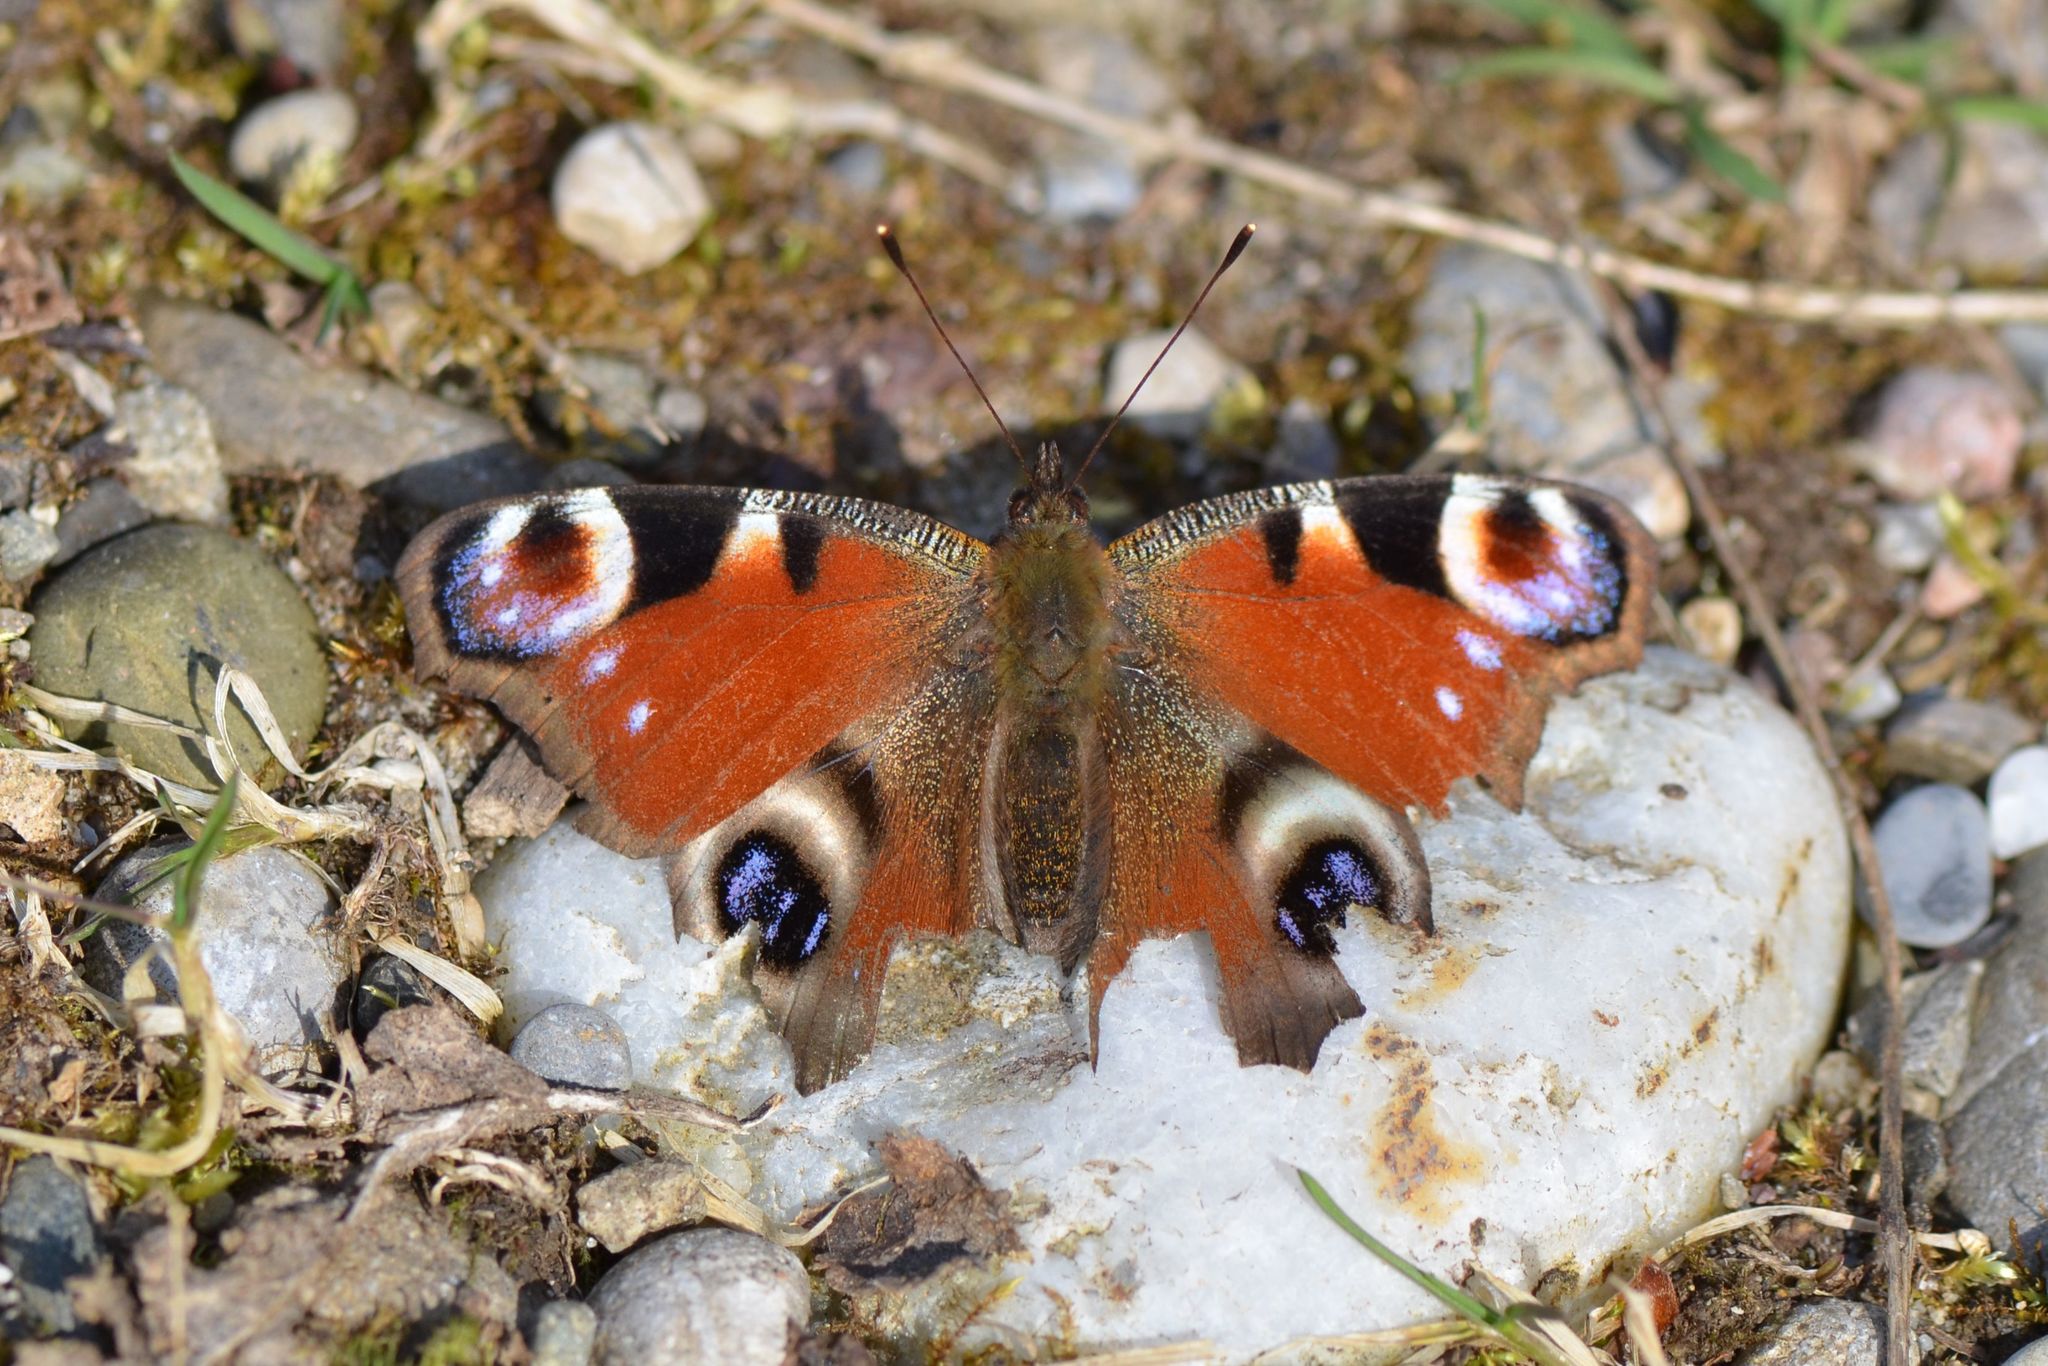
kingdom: Animalia
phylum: Arthropoda
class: Insecta
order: Lepidoptera
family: Nymphalidae
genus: Aglais
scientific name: Aglais io
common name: Peacock
